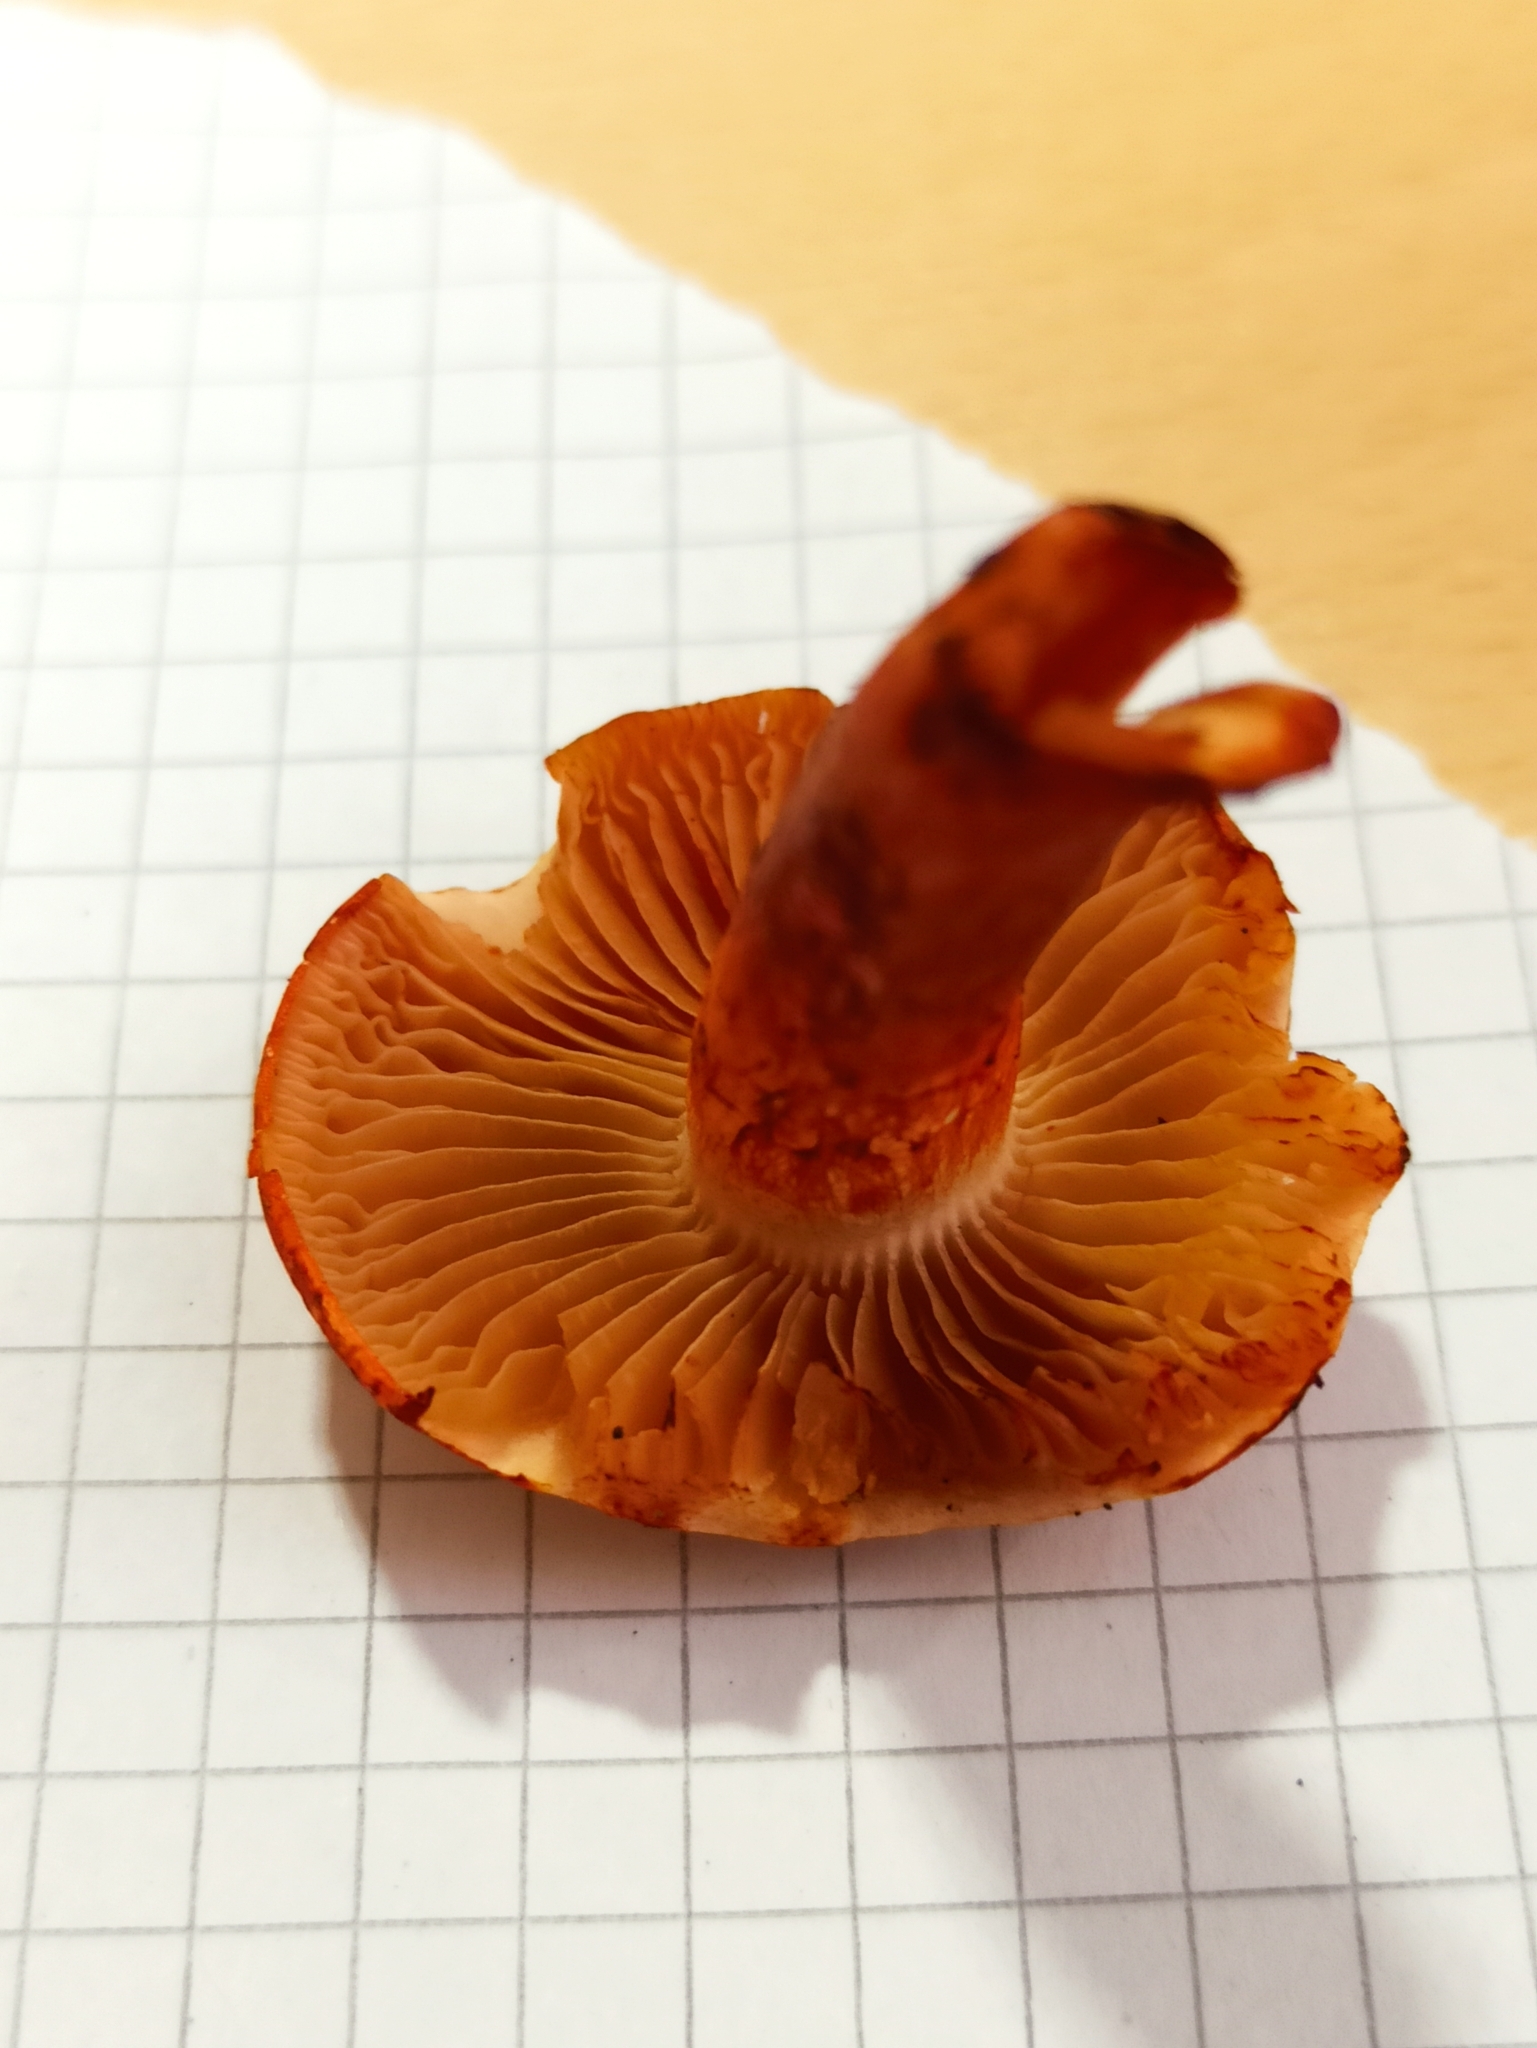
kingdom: Fungi
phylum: Basidiomycota
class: Agaricomycetes
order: Agaricales
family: Cortinariaceae
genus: Cortinarius
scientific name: Cortinarius bolaris
